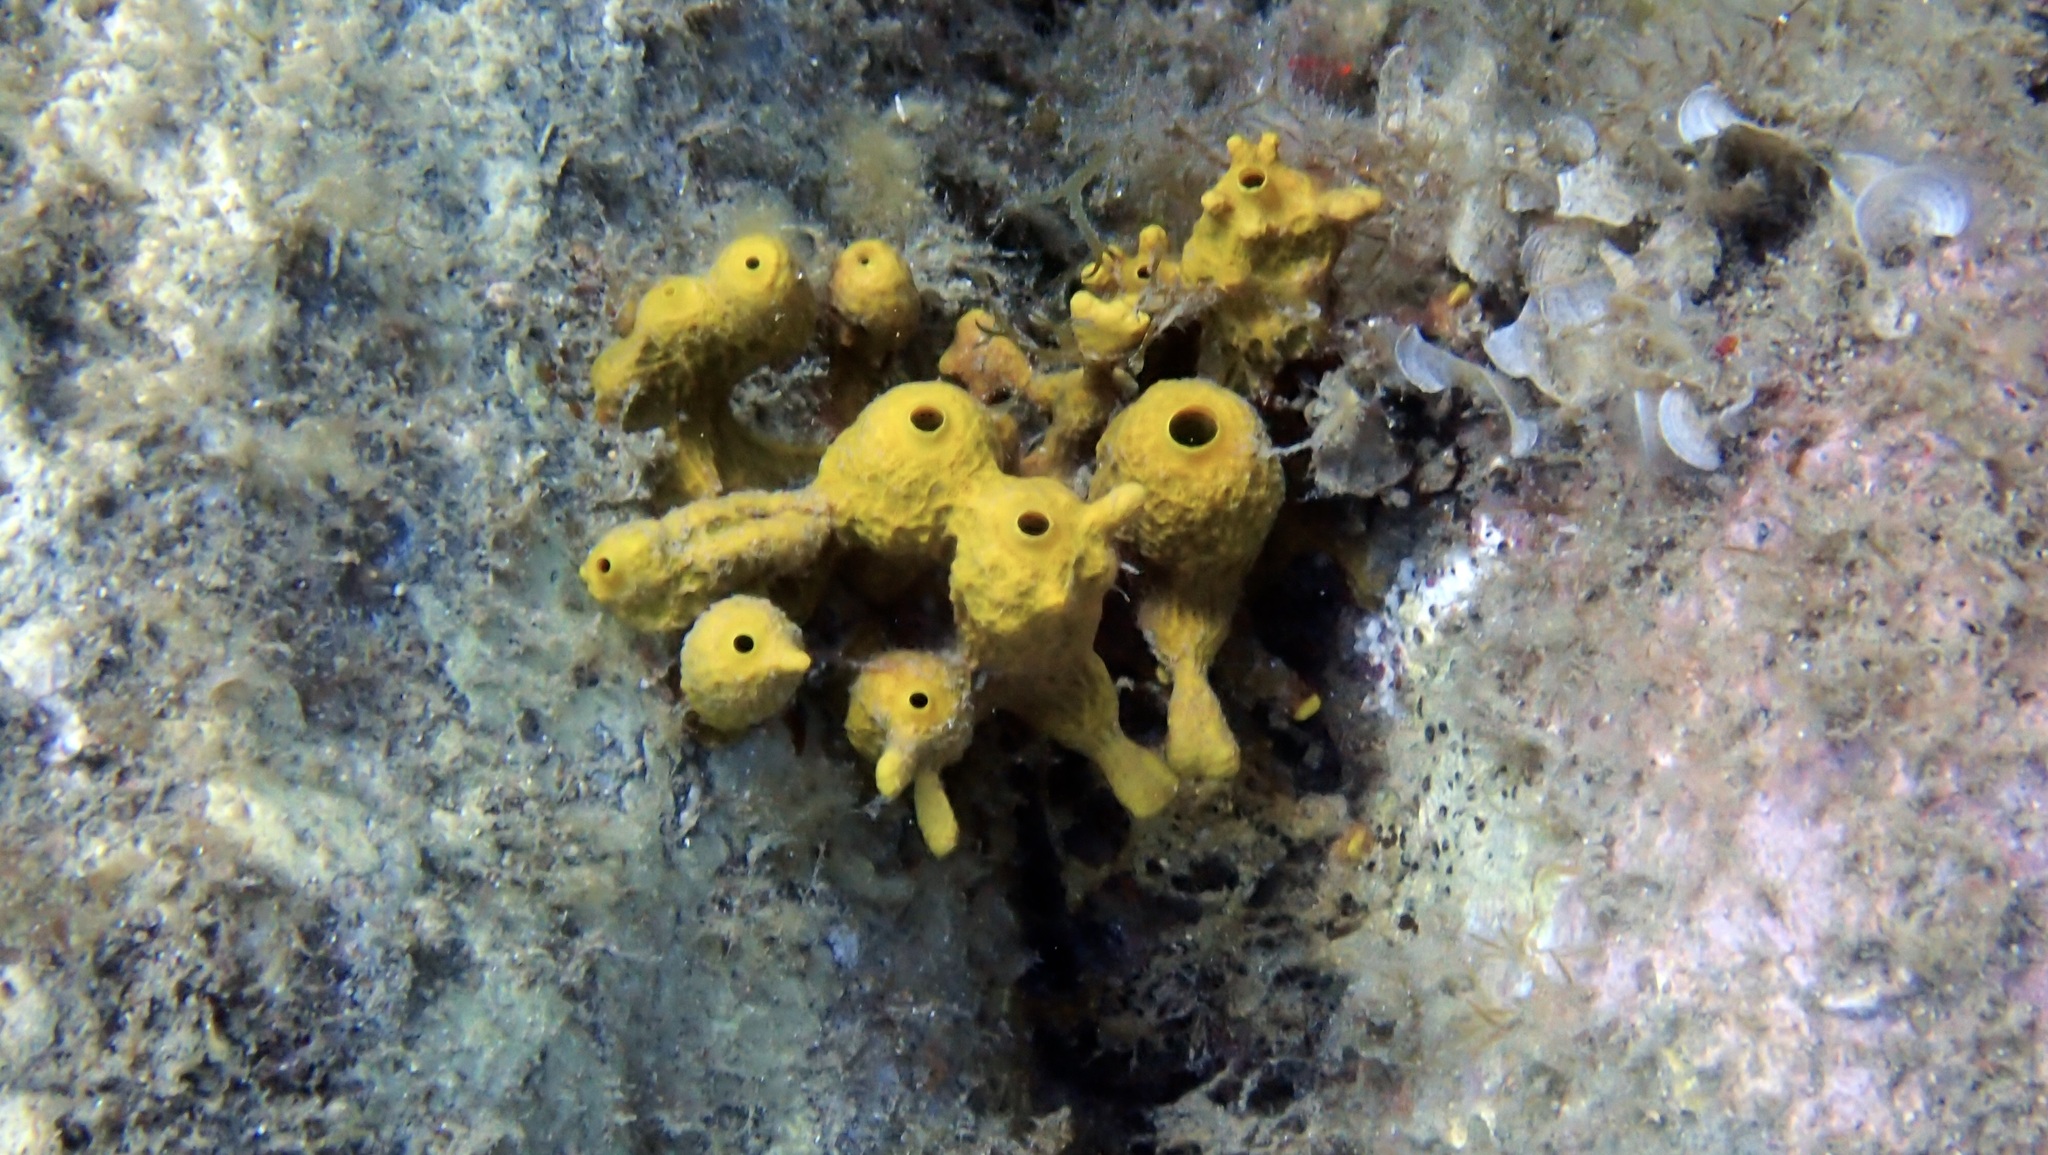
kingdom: Animalia
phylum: Porifera
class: Demospongiae
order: Verongiida
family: Aplysinidae
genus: Aplysina
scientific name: Aplysina aerophoba
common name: Aureate sponge
